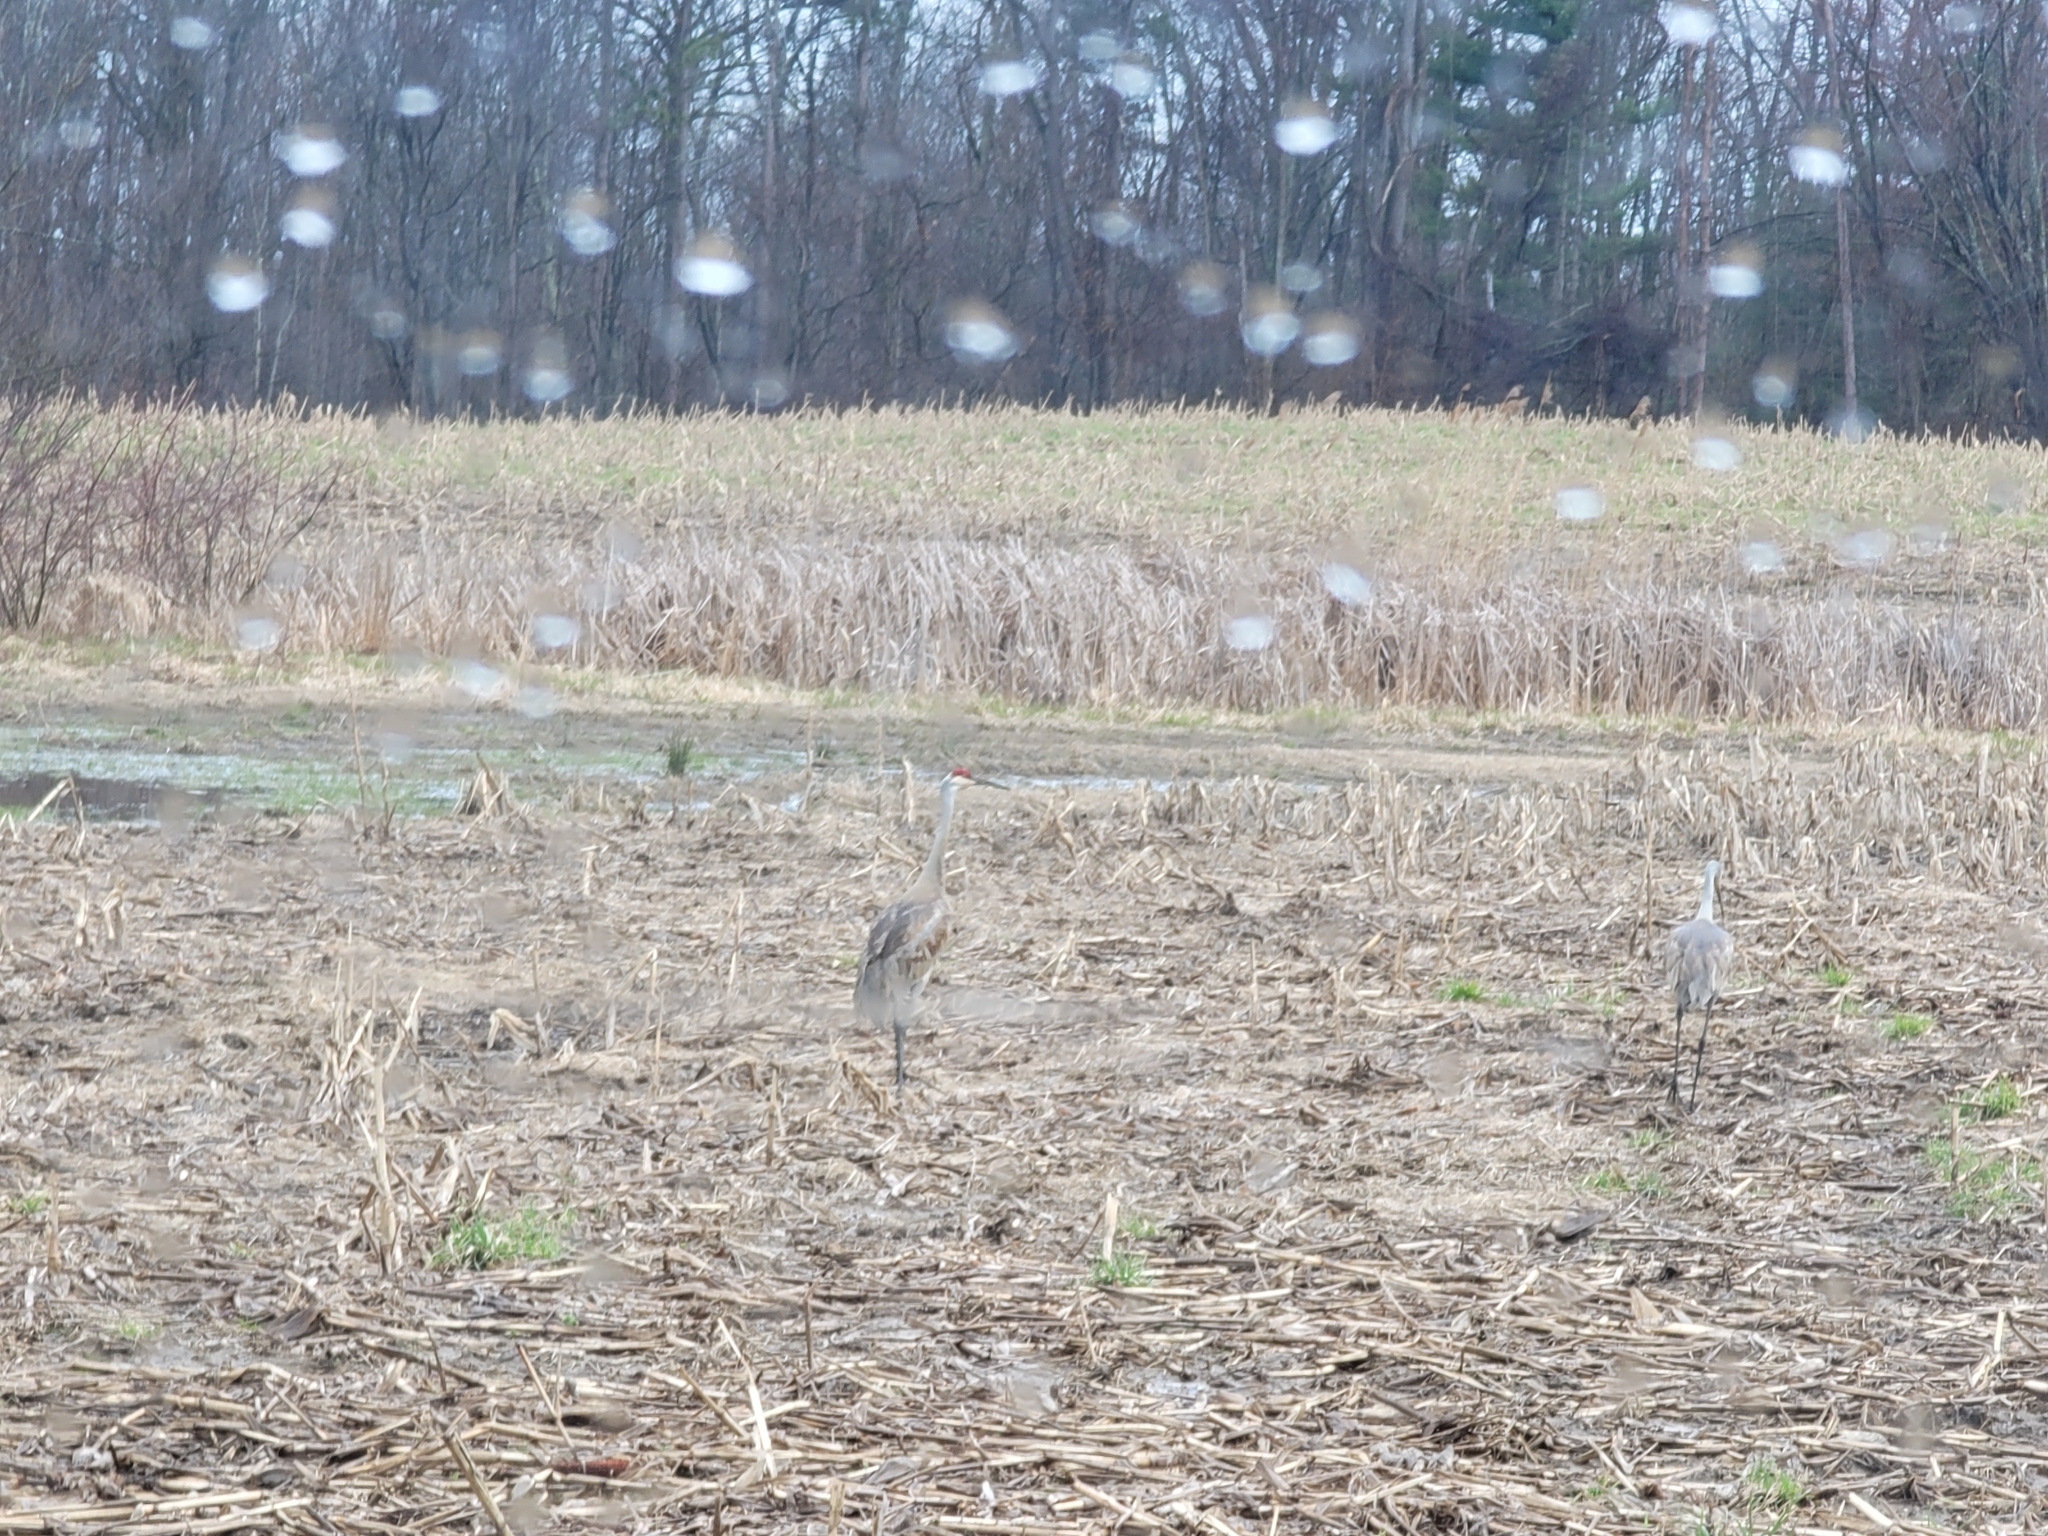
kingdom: Animalia
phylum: Chordata
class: Aves
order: Gruiformes
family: Gruidae
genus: Grus
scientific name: Grus canadensis
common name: Sandhill crane
